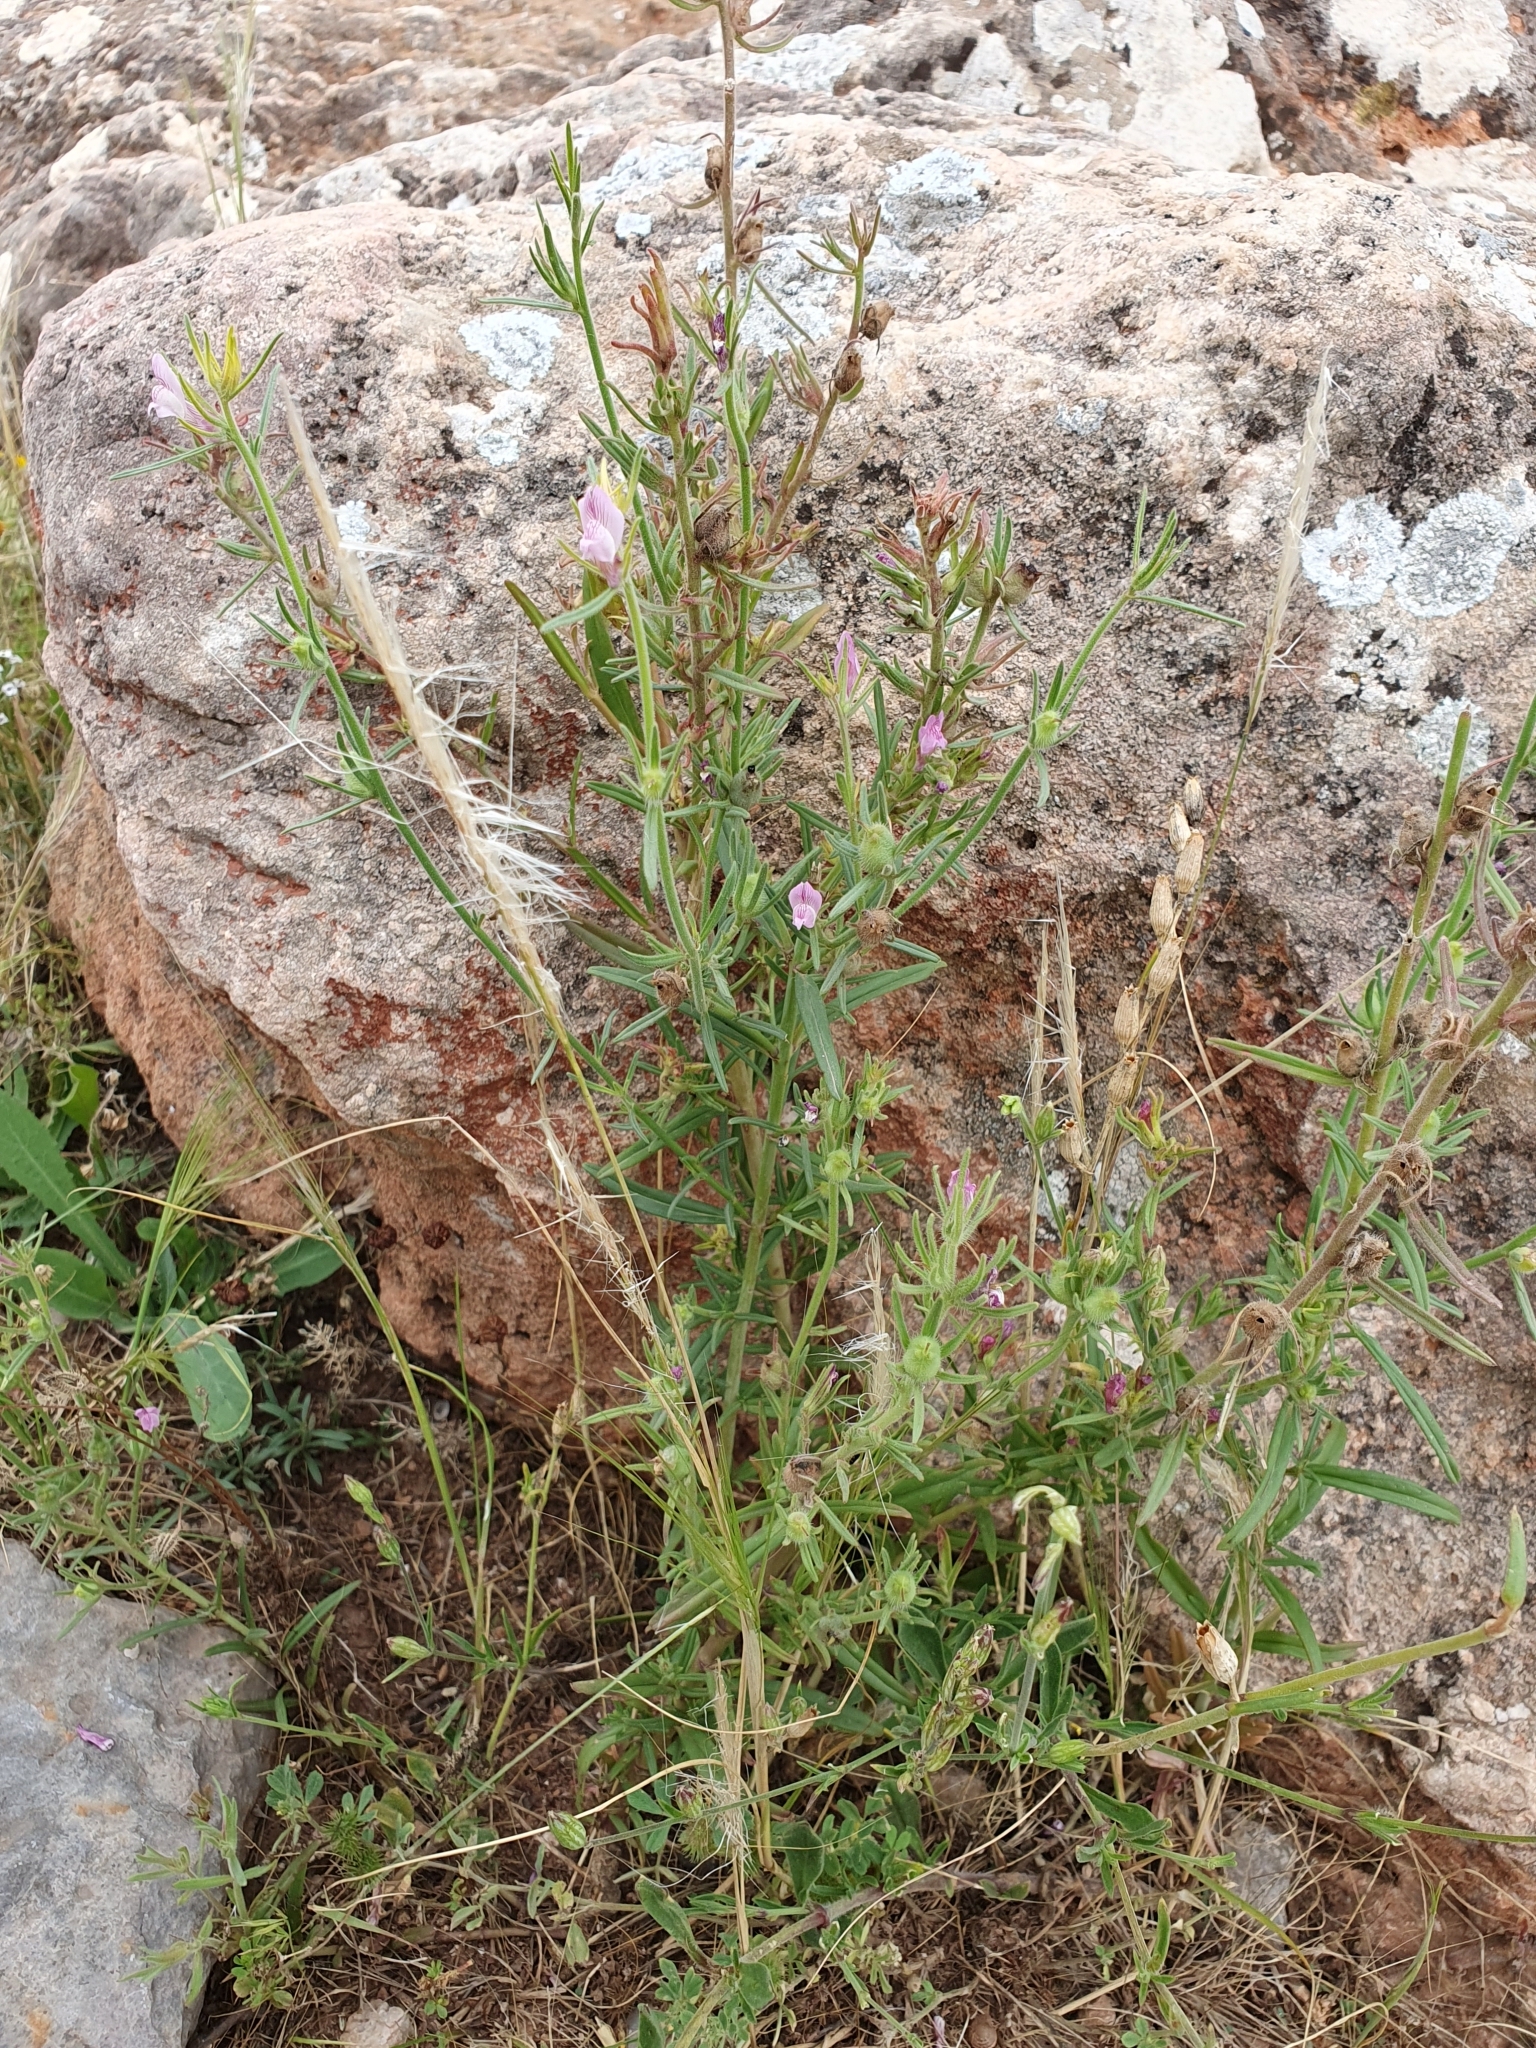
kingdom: Plantae
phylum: Tracheophyta
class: Magnoliopsida
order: Lamiales
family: Plantaginaceae
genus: Misopates
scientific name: Misopates orontium
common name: Weasel's-snout
